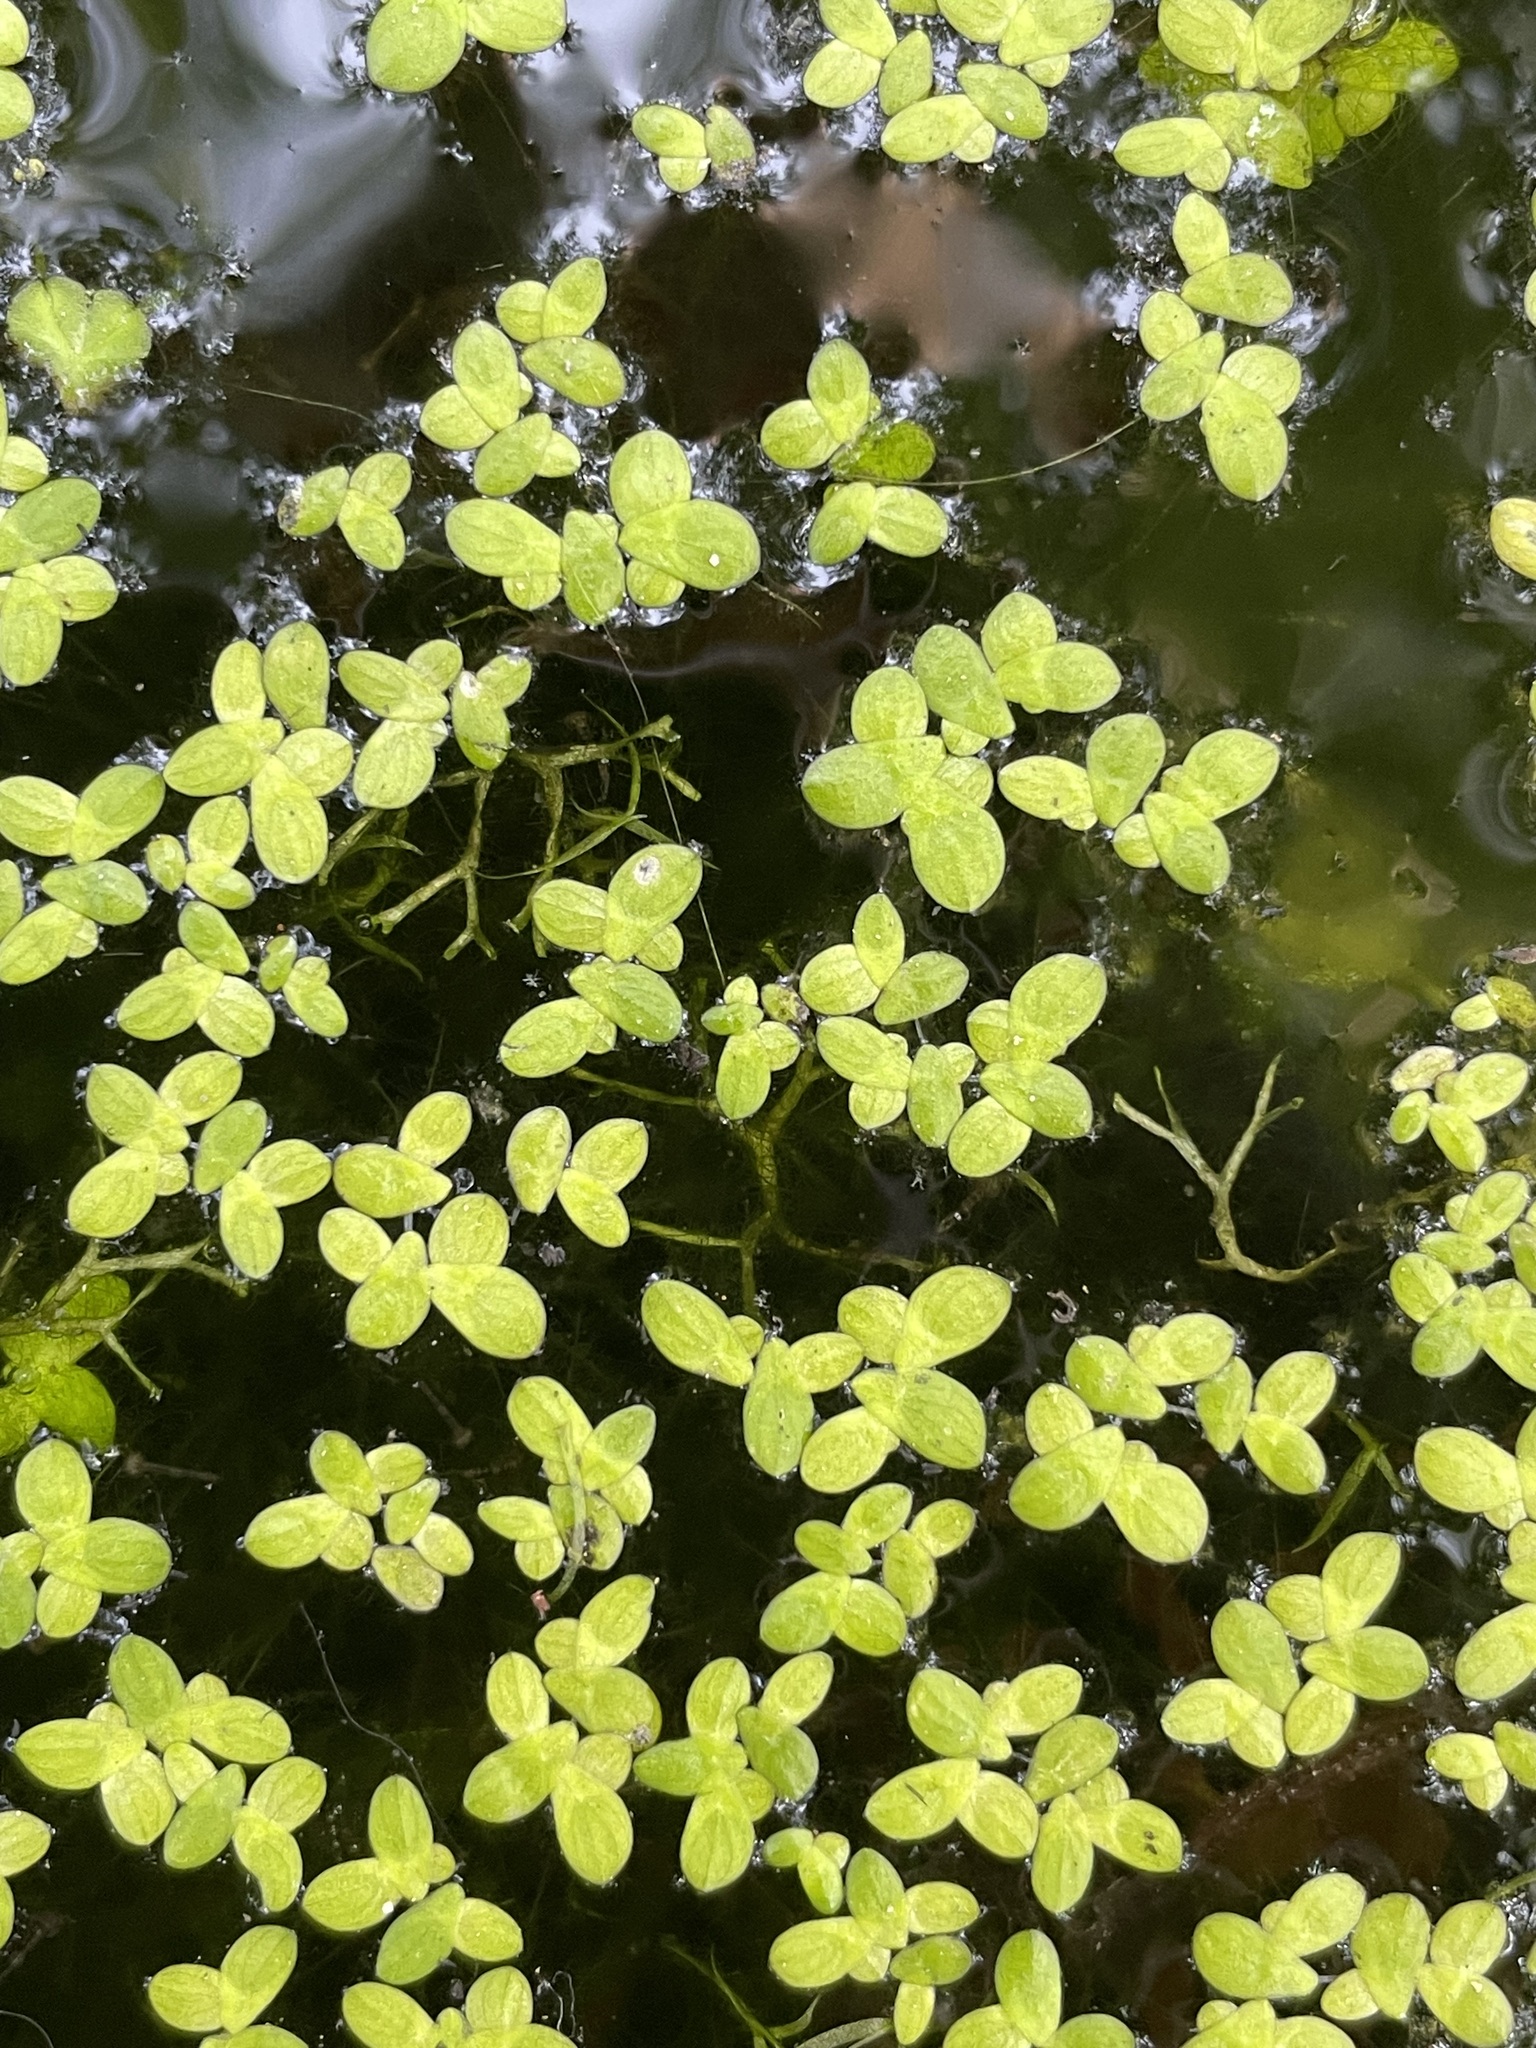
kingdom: Plantae
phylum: Tracheophyta
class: Liliopsida
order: Alismatales
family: Araceae
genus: Spirodela
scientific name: Spirodela punctata
